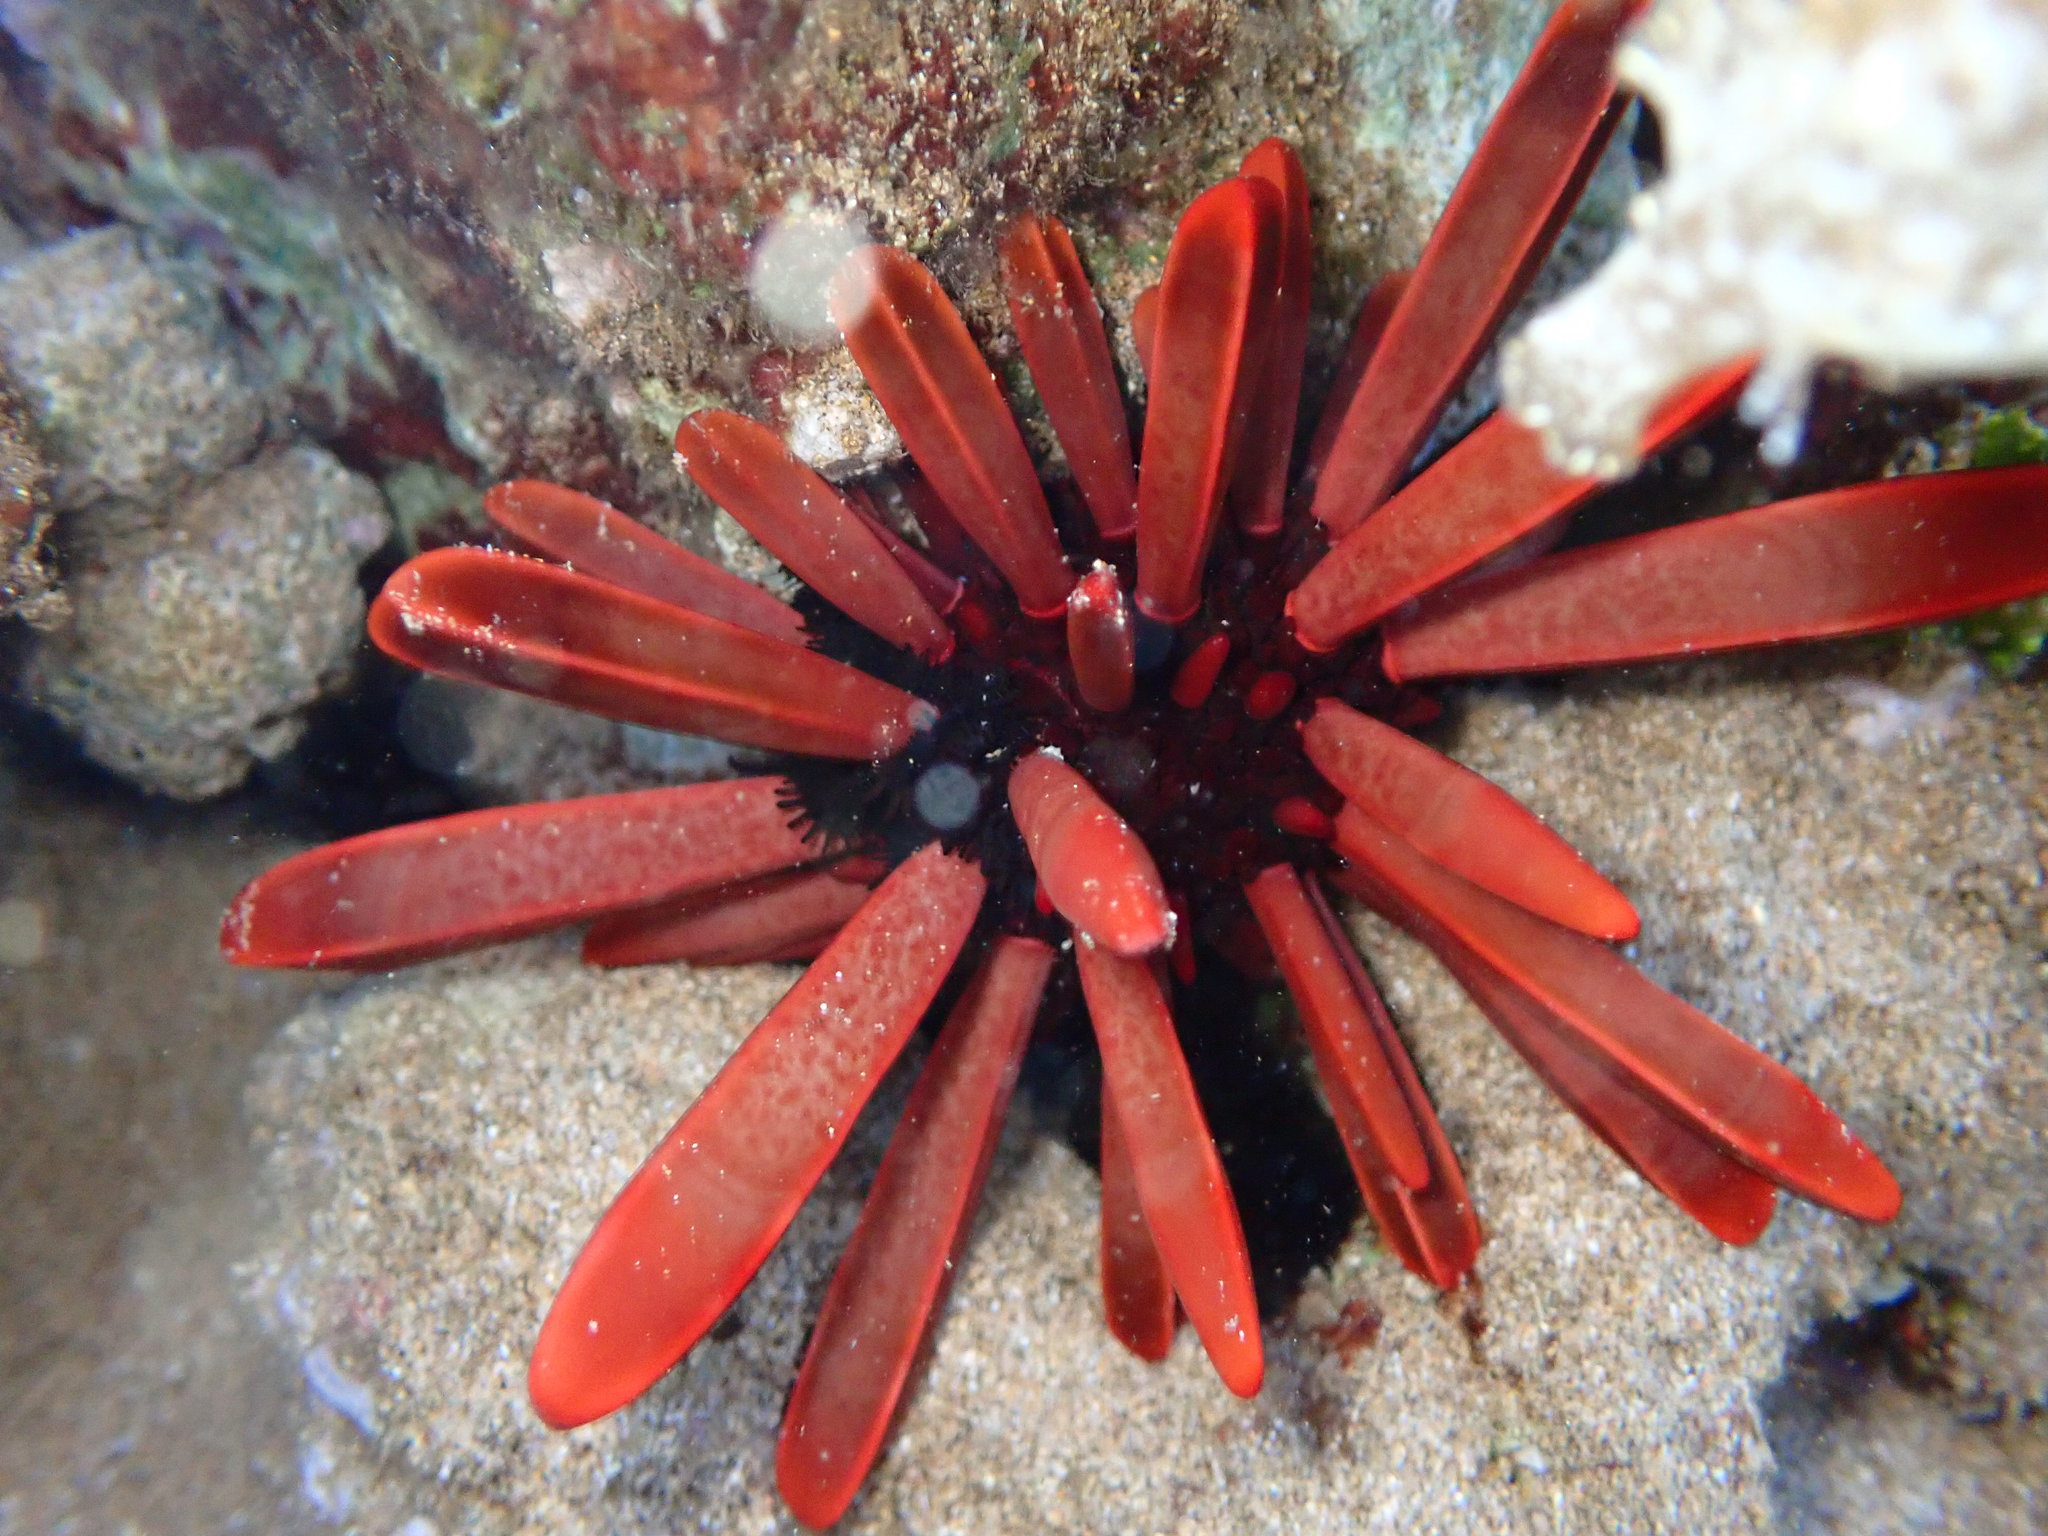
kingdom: Animalia
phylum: Echinodermata
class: Echinoidea
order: Camarodonta
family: Echinometridae
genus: Heterocentrotus
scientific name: Heterocentrotus mamillatus
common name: Slate pencil urchin
